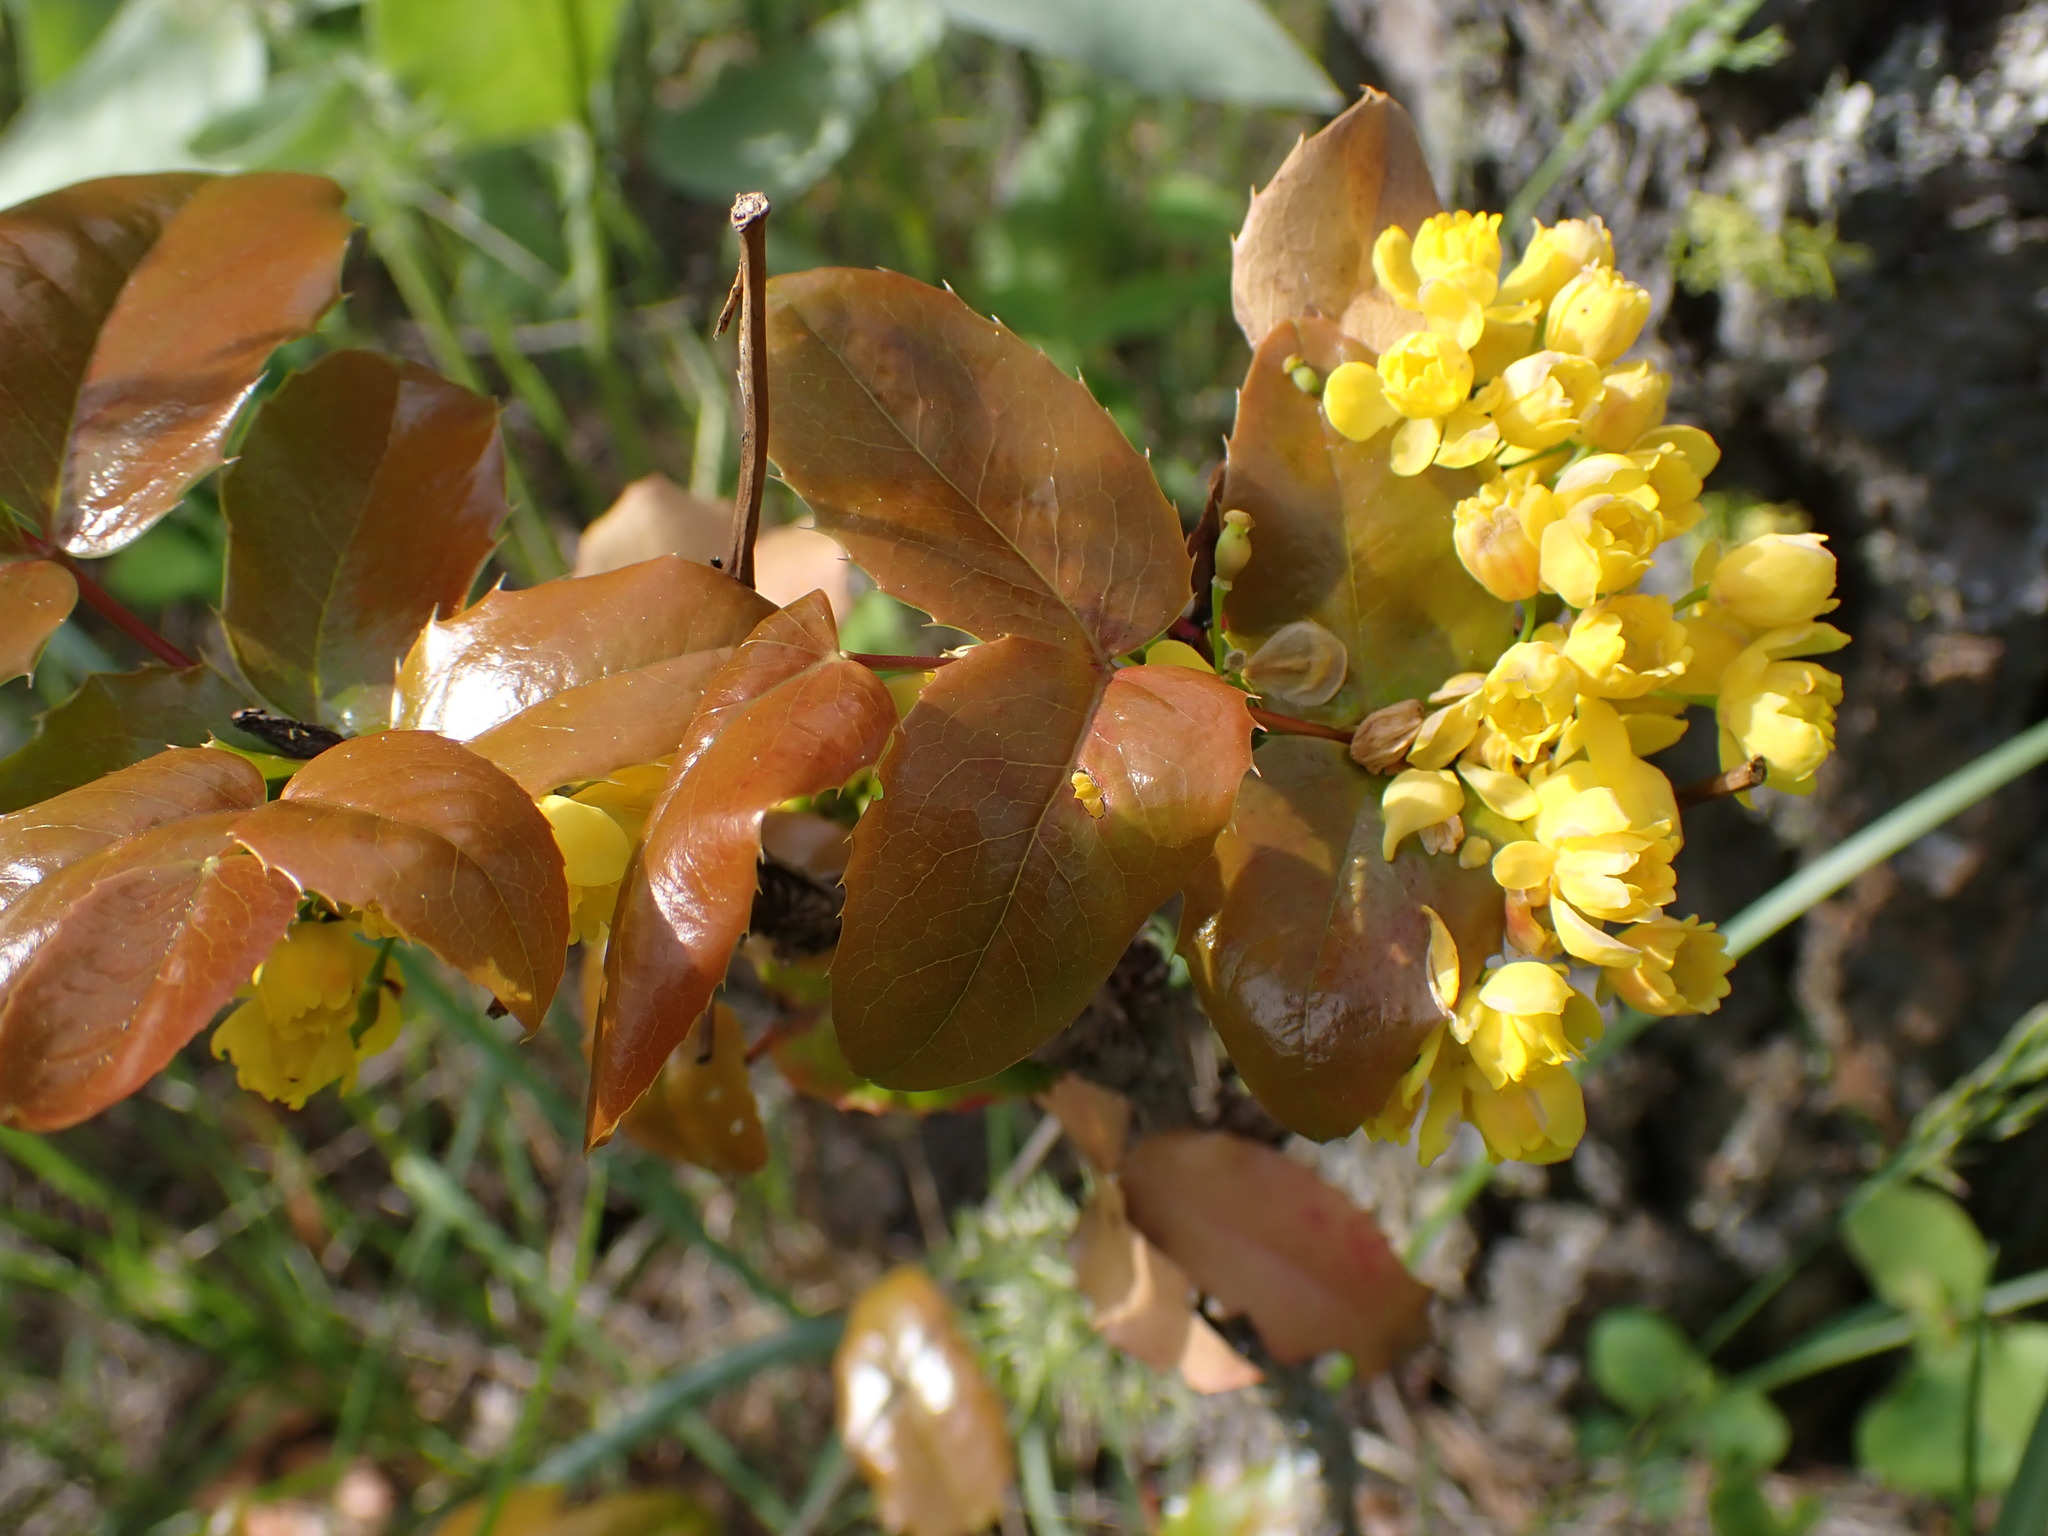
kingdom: Plantae
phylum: Tracheophyta
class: Magnoliopsida
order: Ranunculales
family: Berberidaceae
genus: Mahonia
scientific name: Mahonia aquifolium
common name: Oregon-grape
